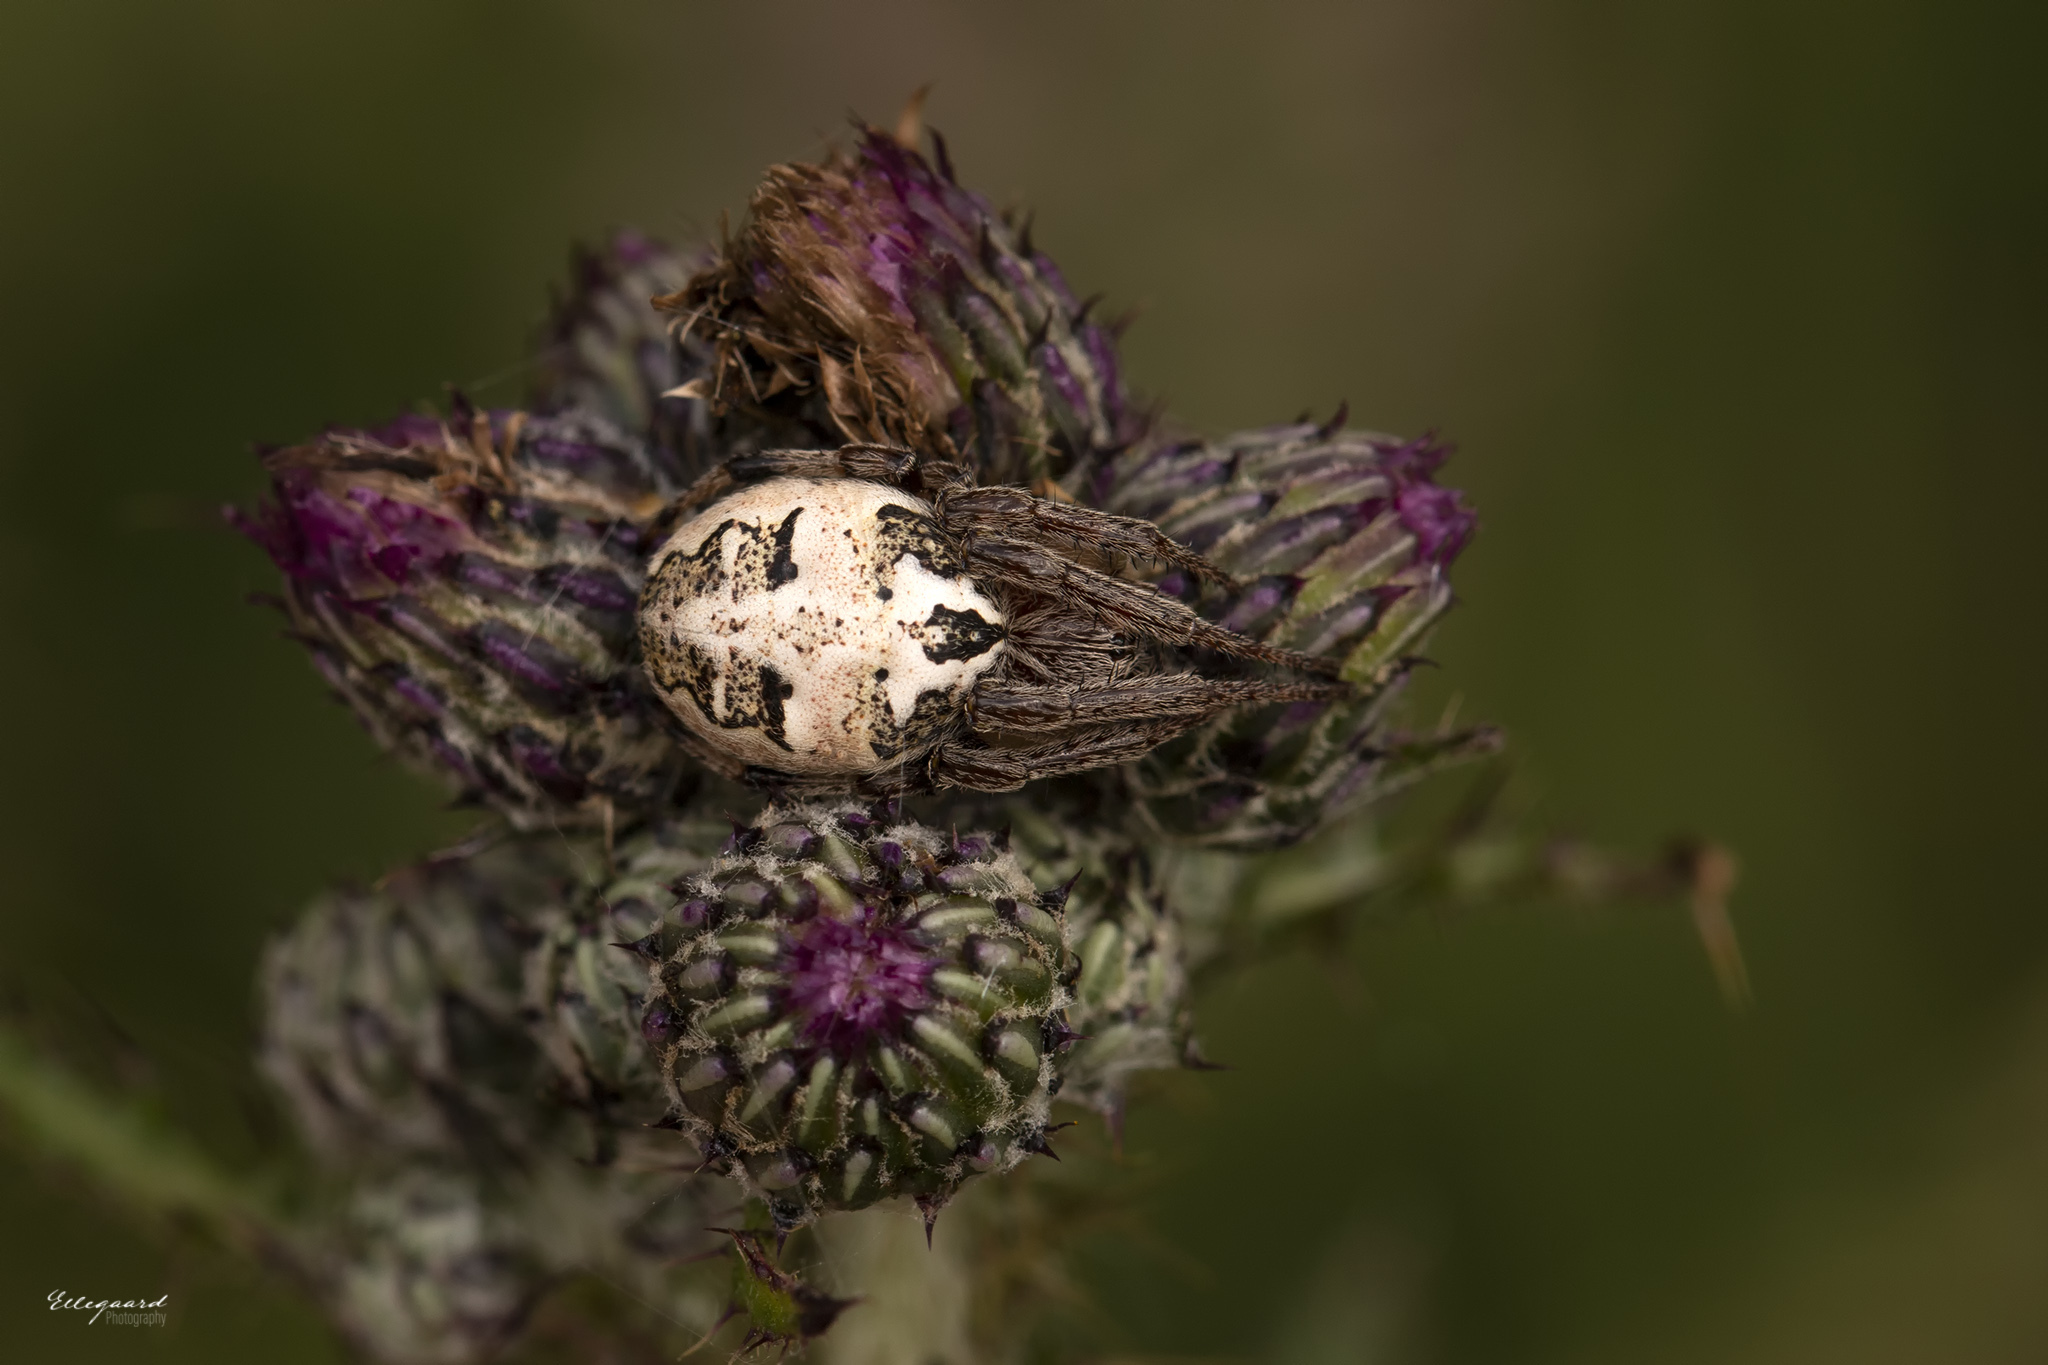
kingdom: Animalia
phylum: Arthropoda
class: Arachnida
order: Araneae
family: Araneidae
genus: Larinioides
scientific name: Larinioides cornutus
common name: Furrow orbweaver
